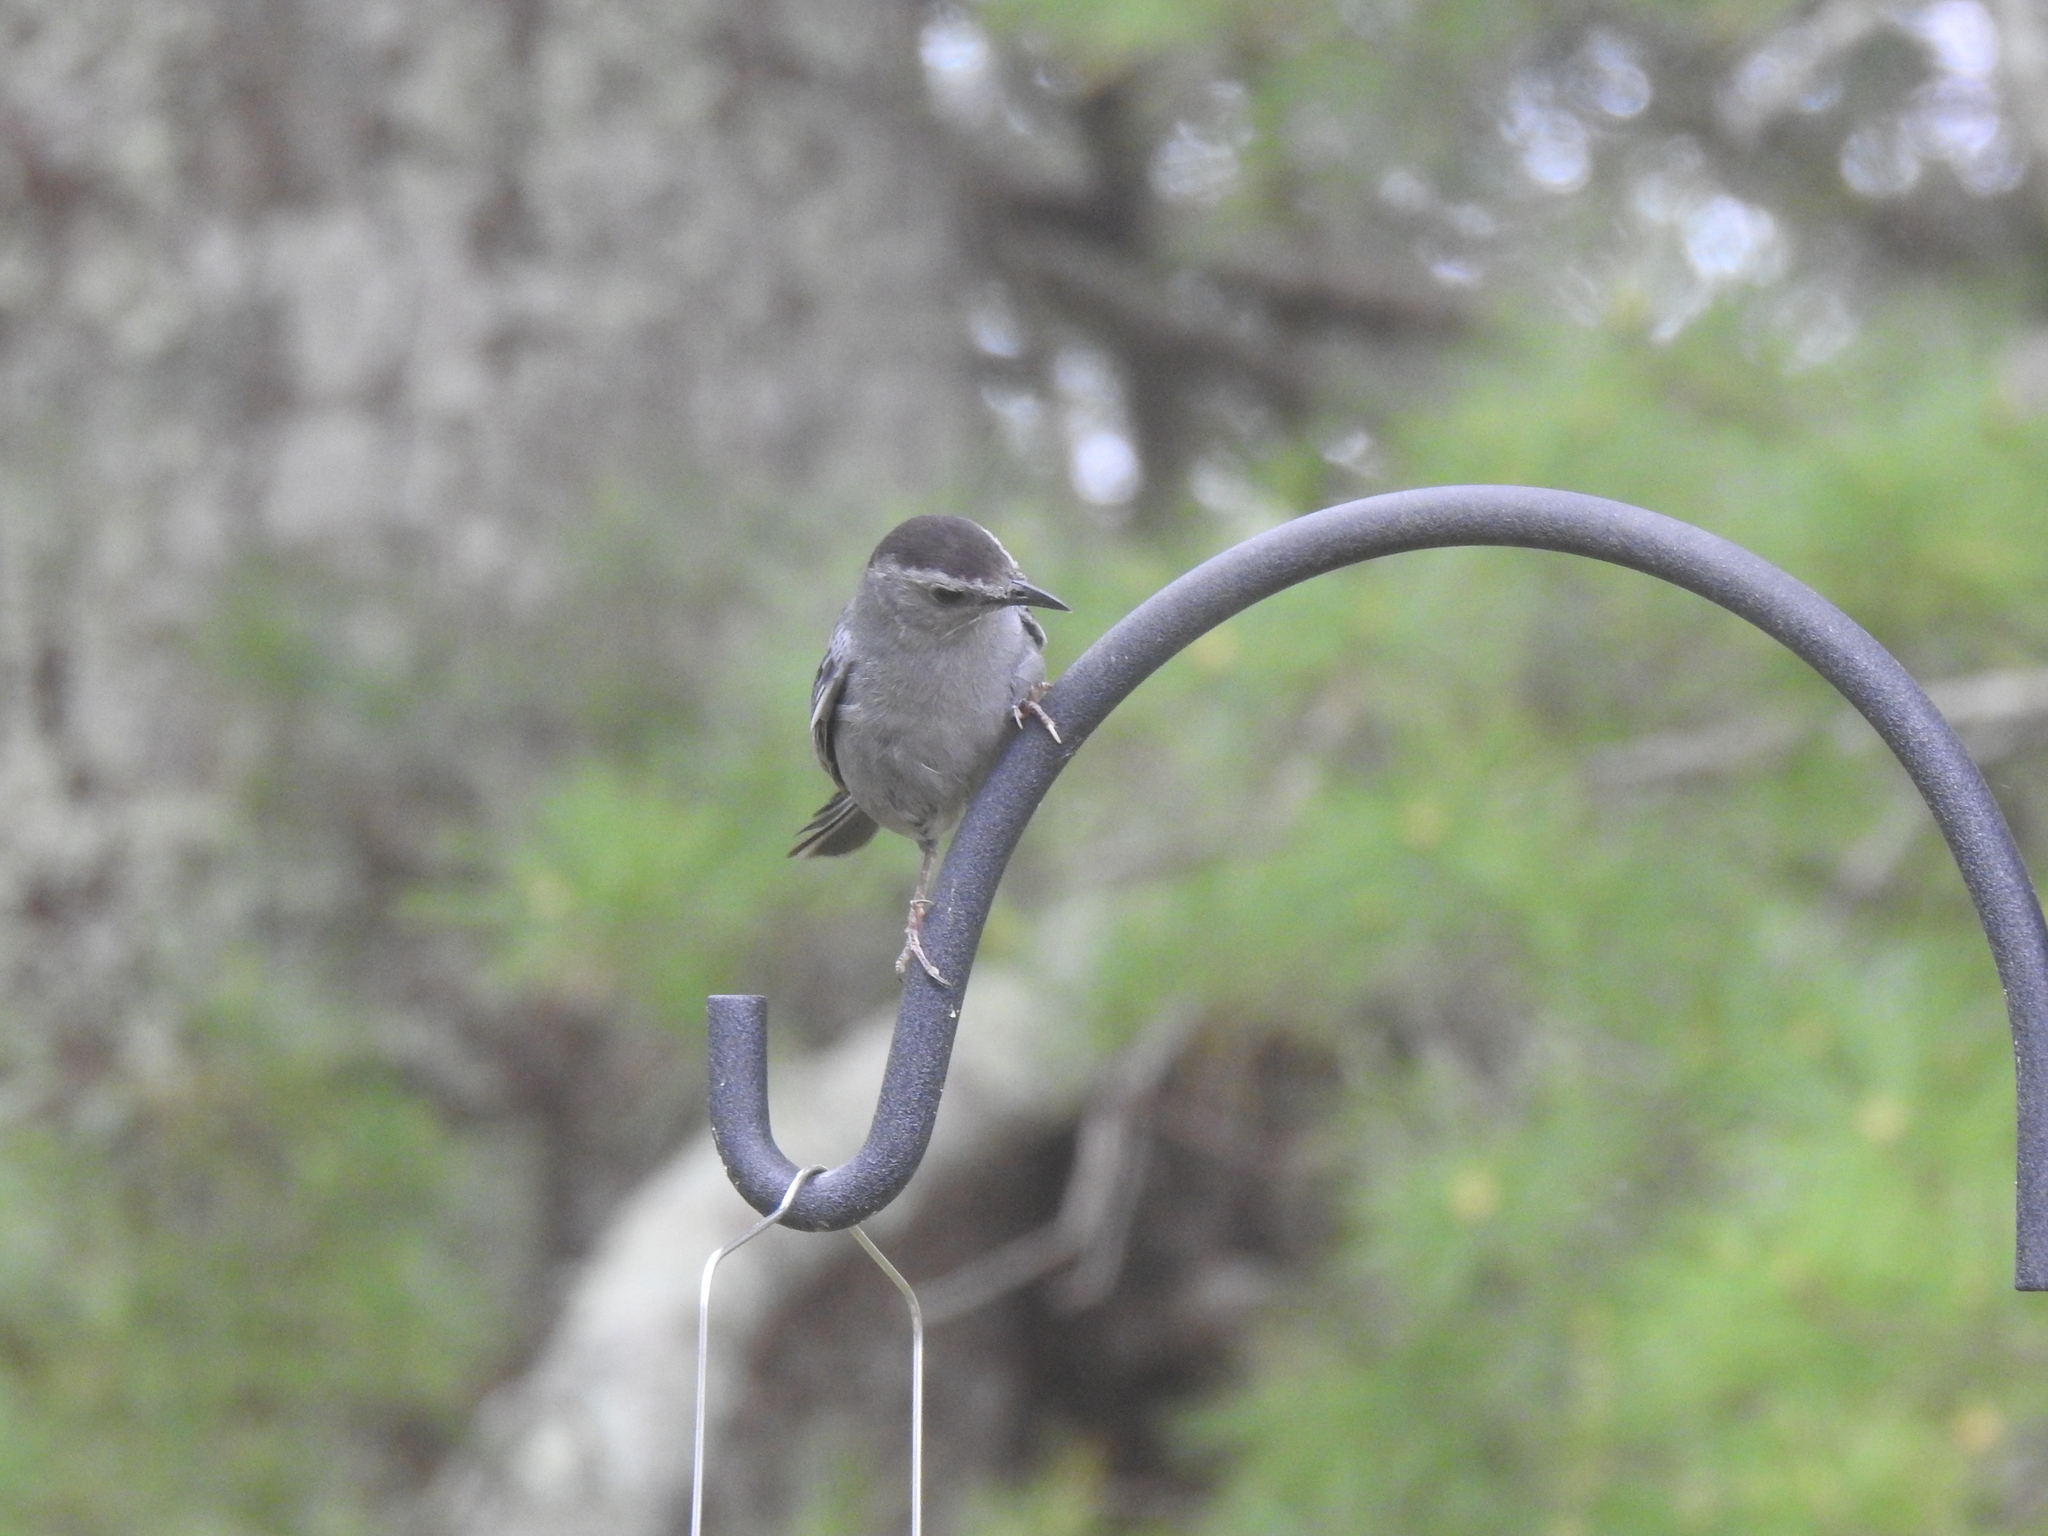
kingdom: Animalia
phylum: Chordata
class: Aves
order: Passeriformes
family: Mimidae
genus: Dumetella
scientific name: Dumetella carolinensis
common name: Gray catbird
